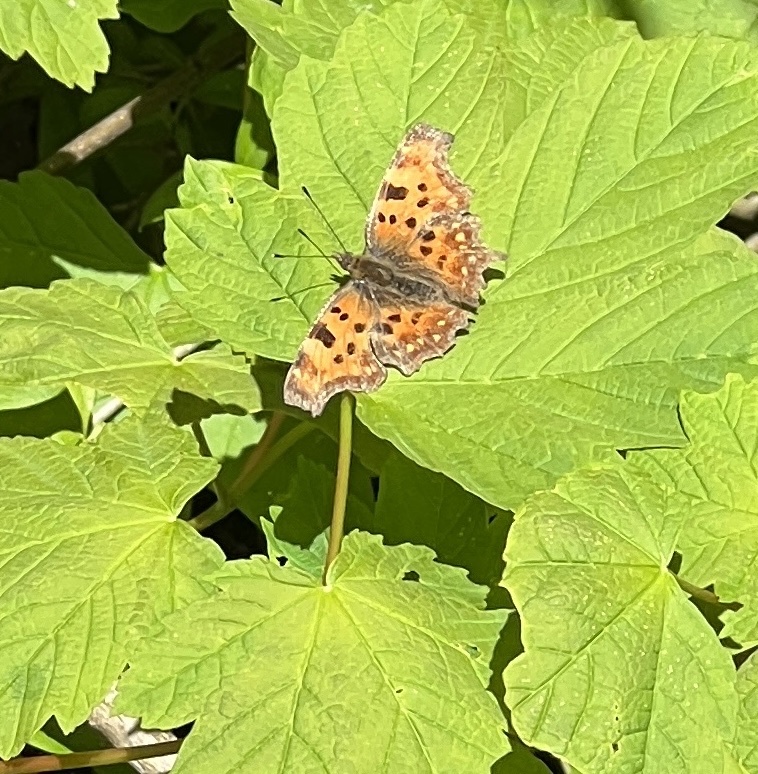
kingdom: Animalia
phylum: Arthropoda
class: Insecta
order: Lepidoptera
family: Nymphalidae
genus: Polygonia
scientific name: Polygonia c-album
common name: Comma
